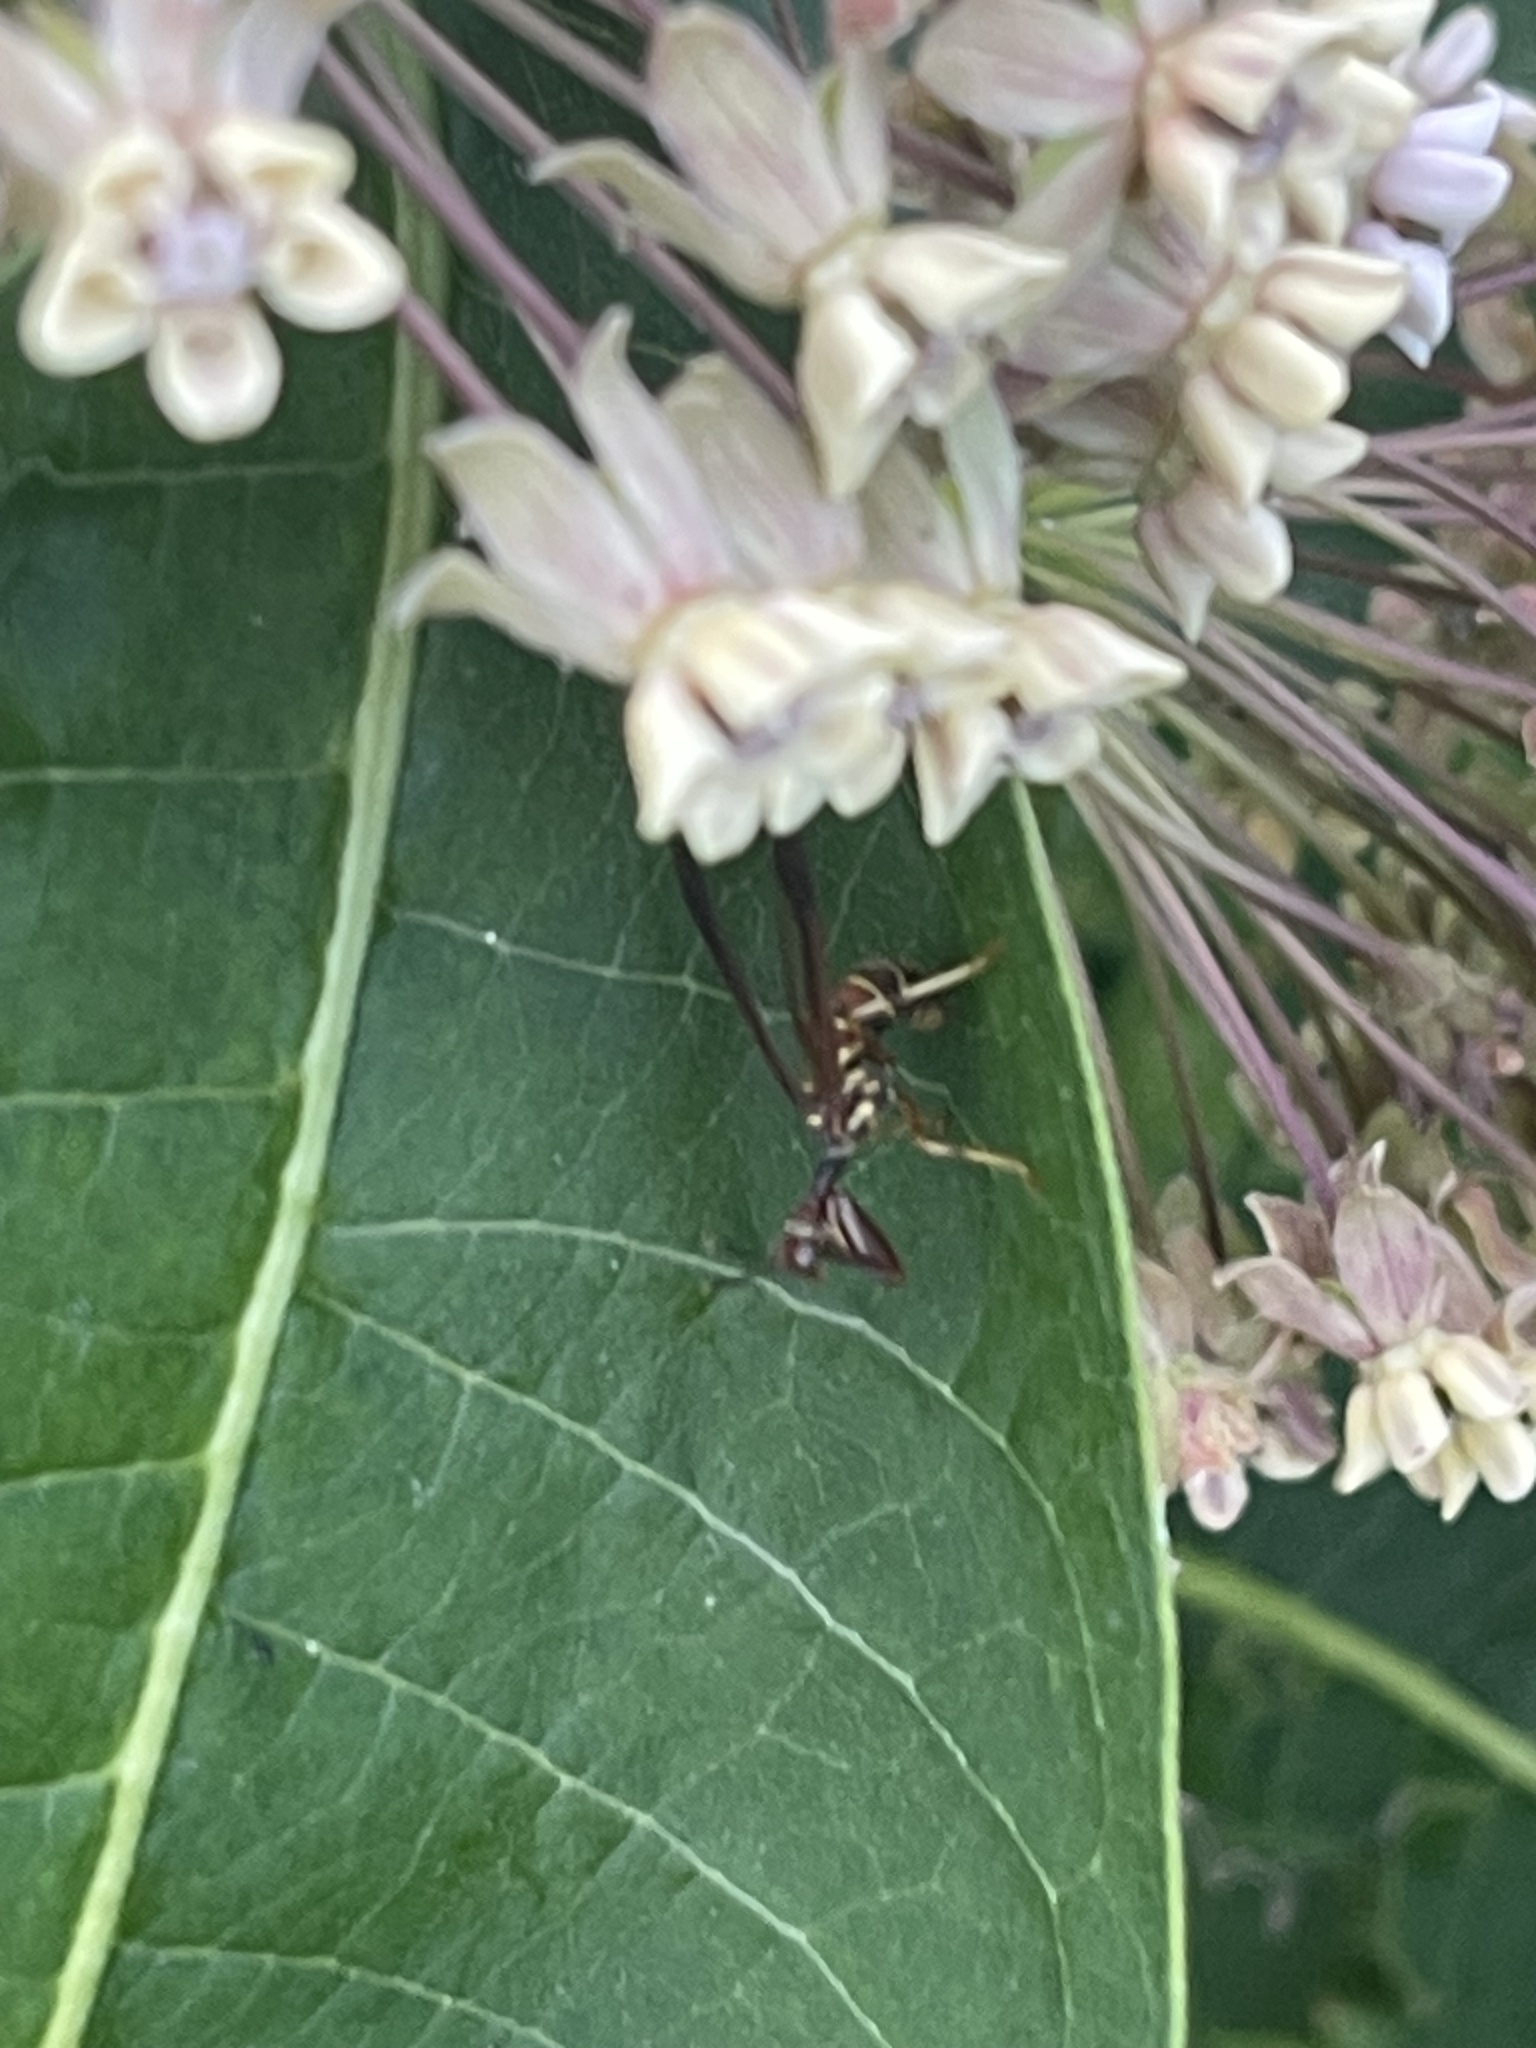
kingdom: Animalia
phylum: Arthropoda
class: Insecta
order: Neuroptera
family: Mantispidae
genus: Climaciella
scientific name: Climaciella brunnea
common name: Brown wasp mantidfly
